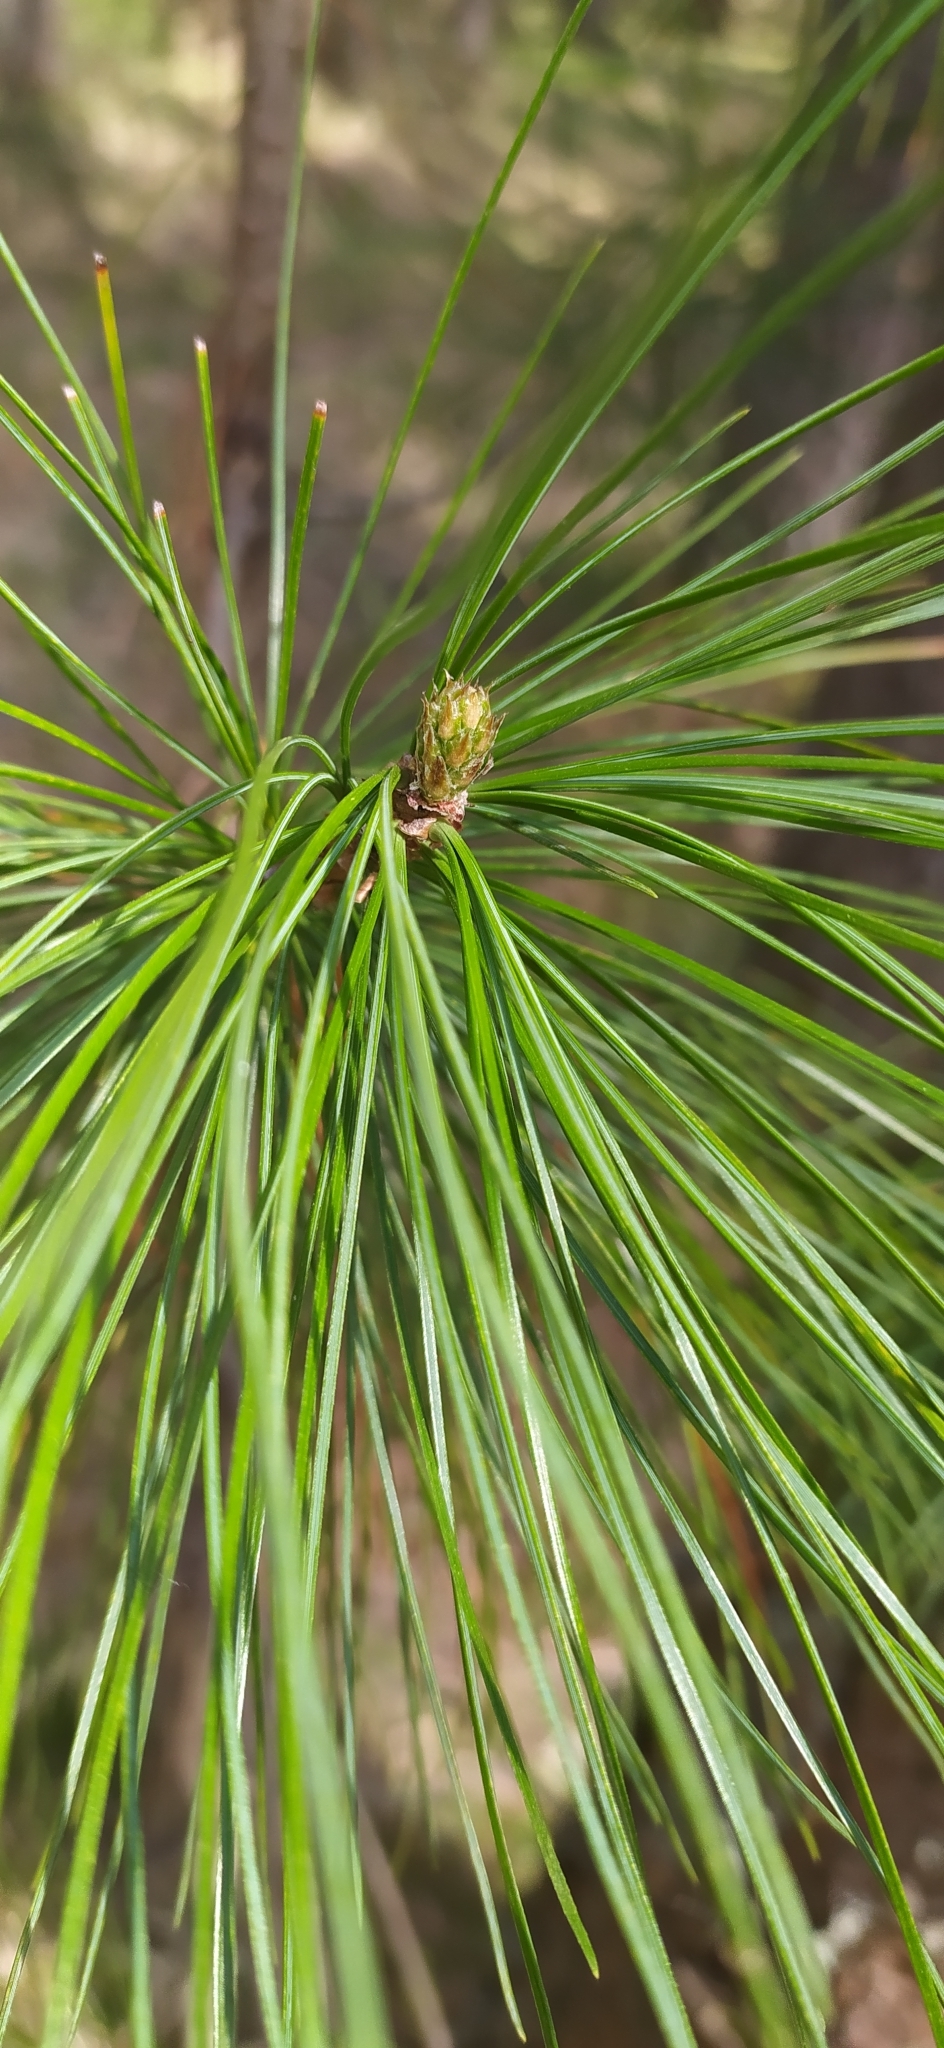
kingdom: Plantae
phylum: Tracheophyta
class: Pinopsida
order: Pinales
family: Pinaceae
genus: Pinus
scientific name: Pinus sibirica
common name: Siberian pine
